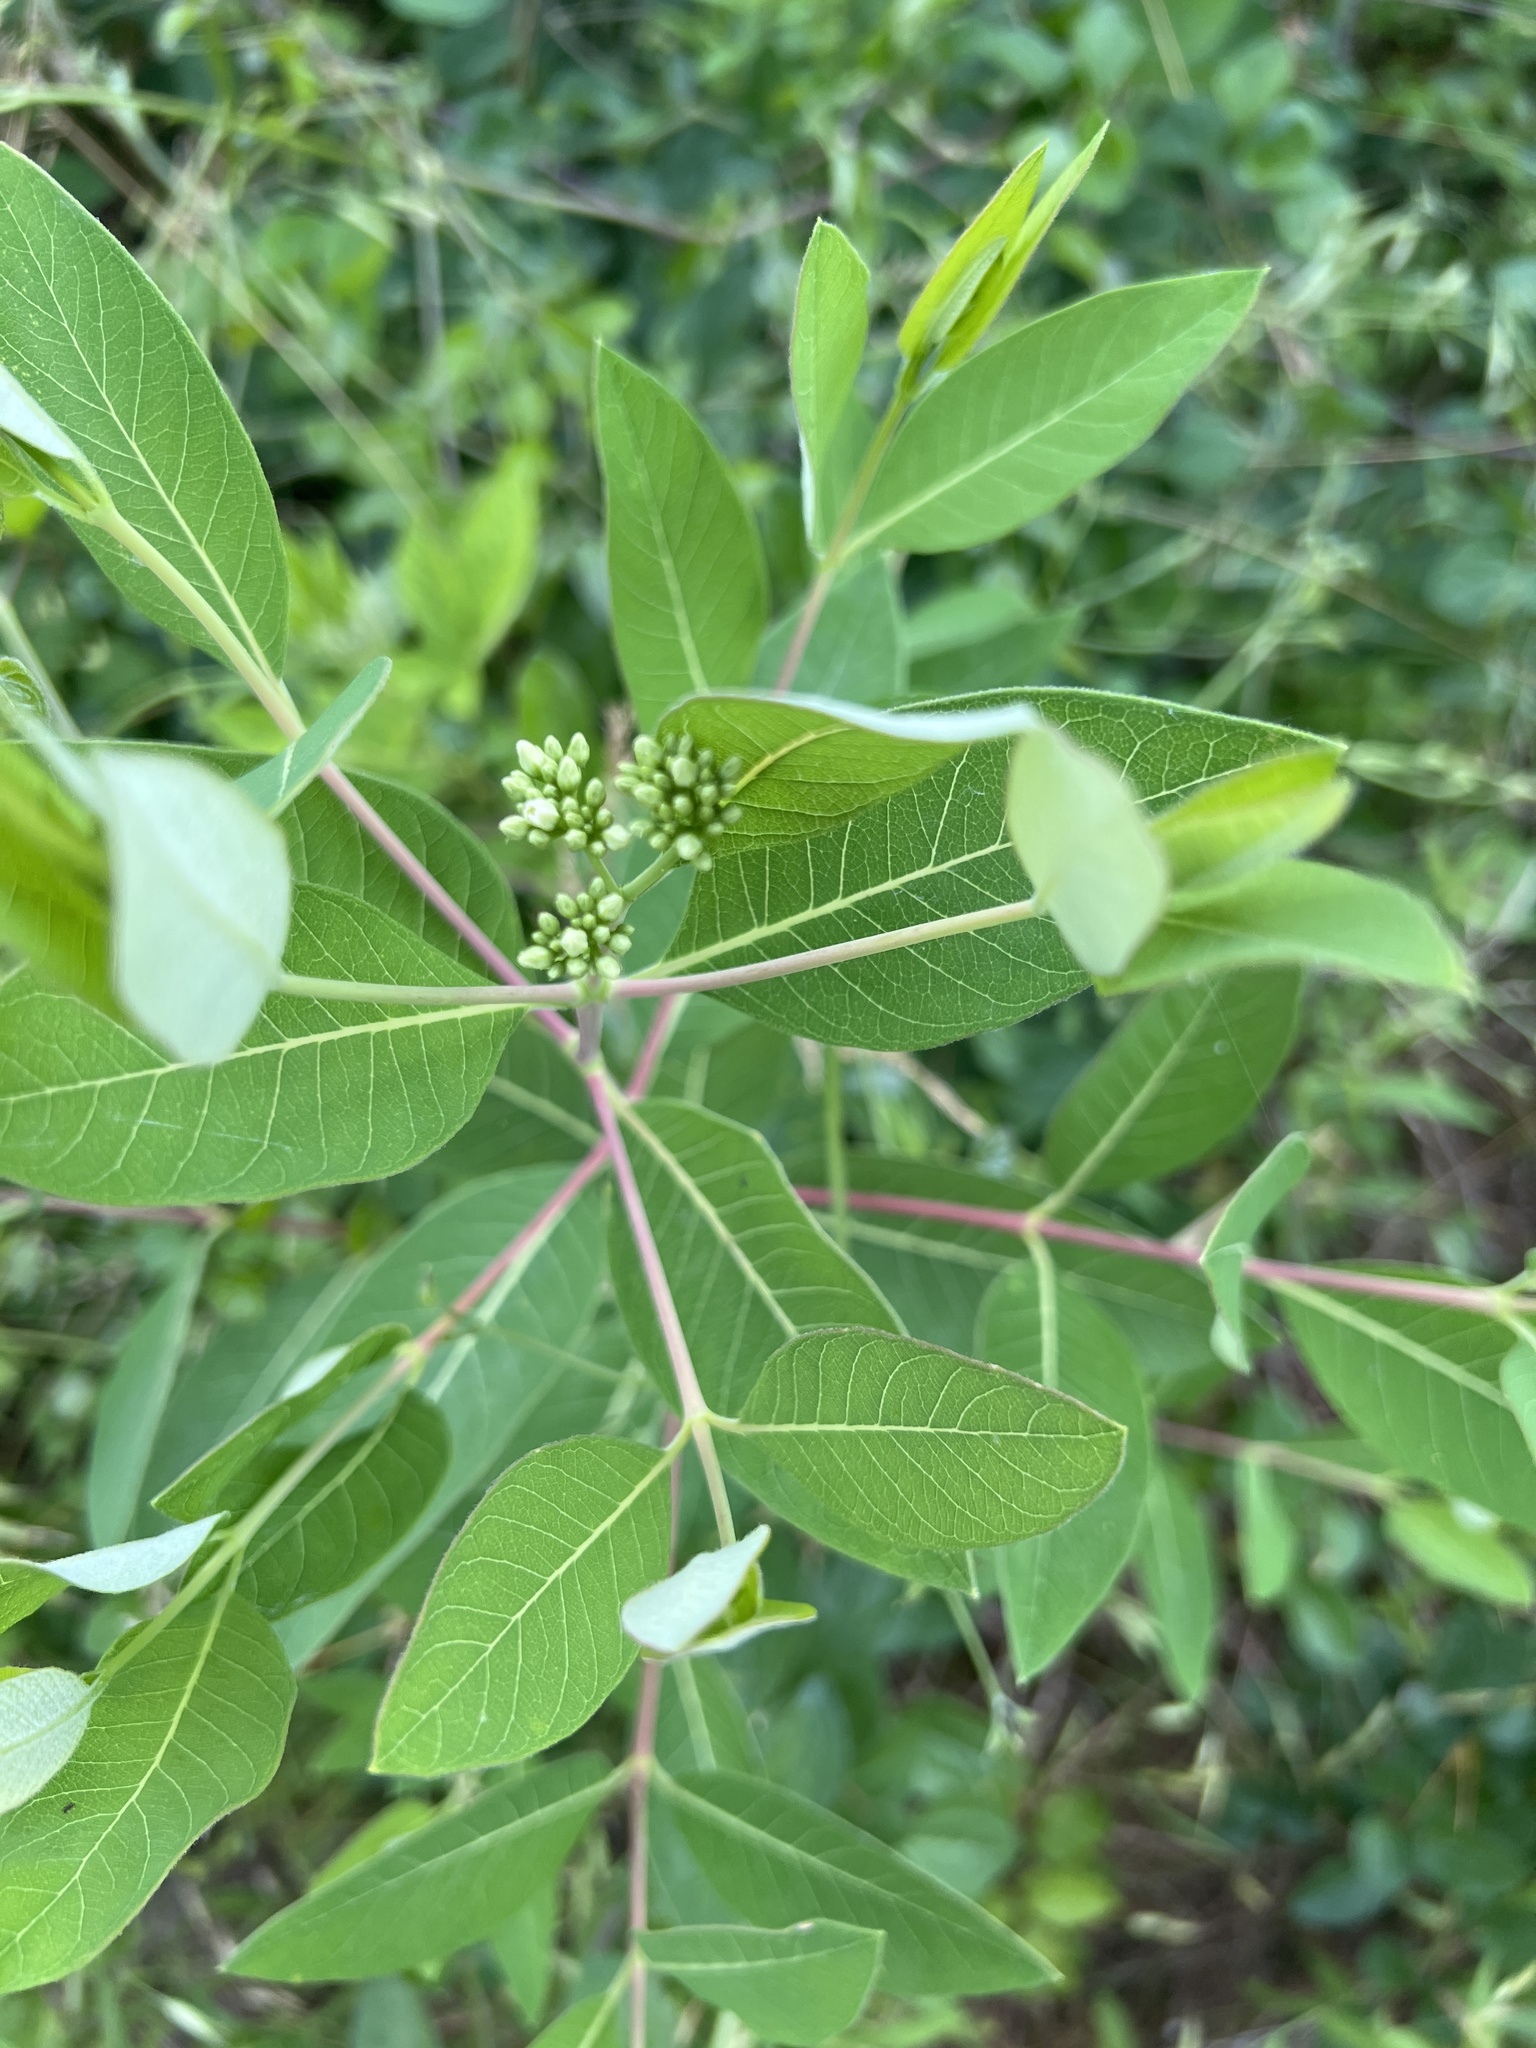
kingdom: Plantae
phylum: Tracheophyta
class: Magnoliopsida
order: Gentianales
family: Apocynaceae
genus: Apocynum
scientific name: Apocynum cannabinum
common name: Hemp dogbane
